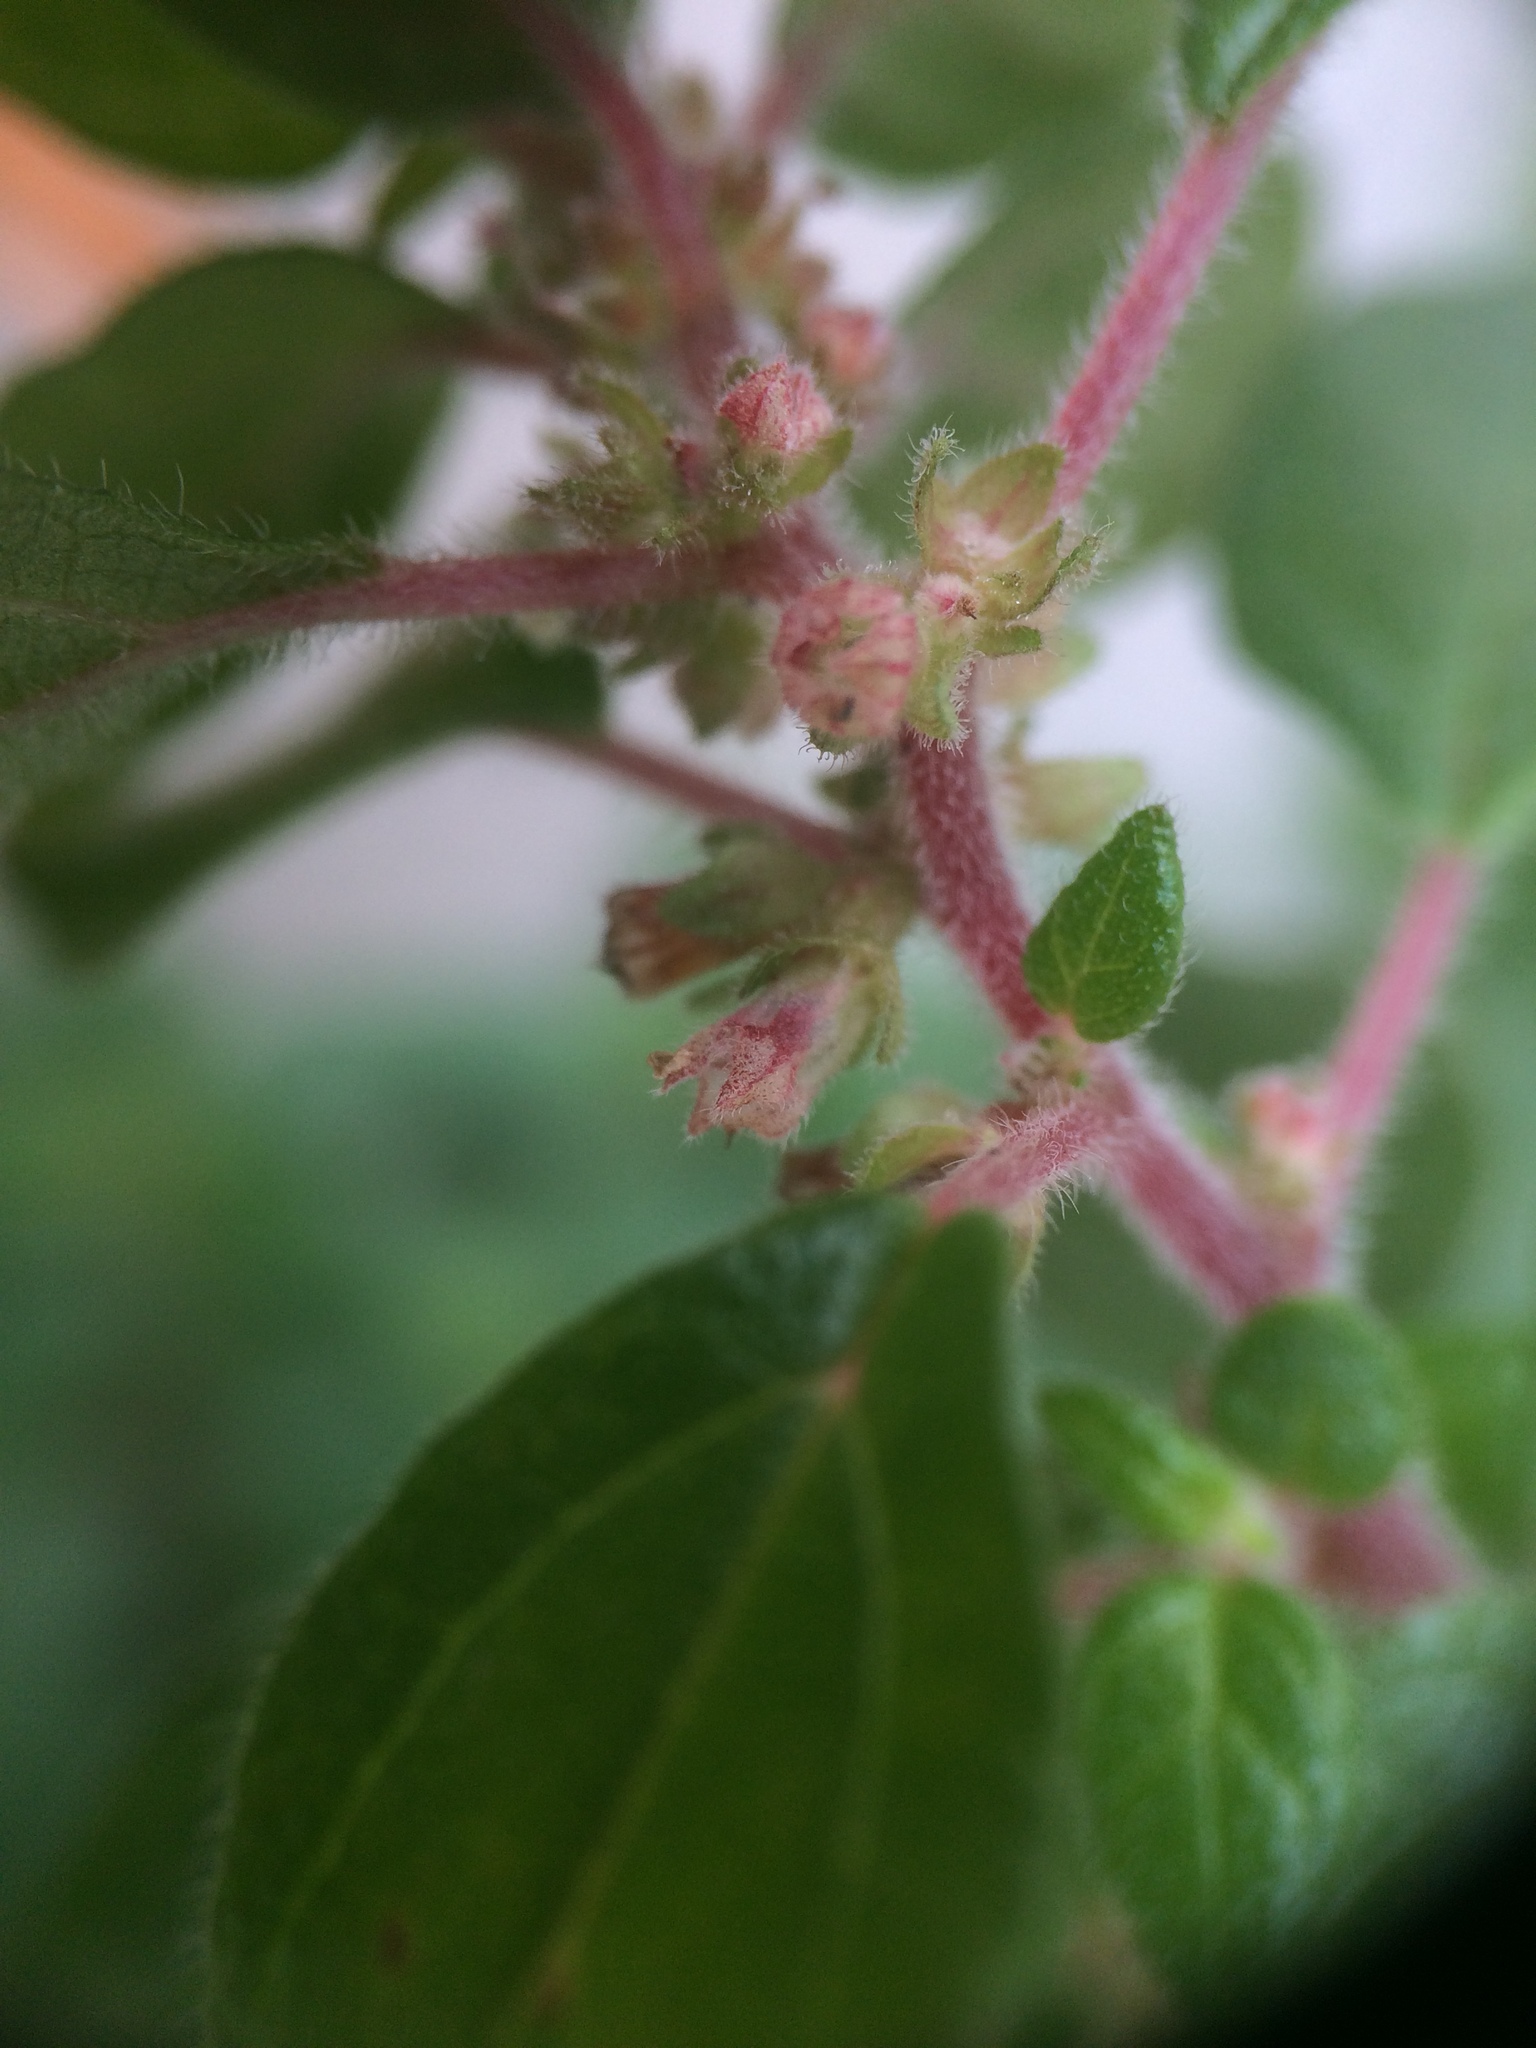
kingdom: Plantae
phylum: Tracheophyta
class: Magnoliopsida
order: Rosales
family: Urticaceae
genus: Parietaria
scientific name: Parietaria judaica
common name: Pellitory-of-the-wall
